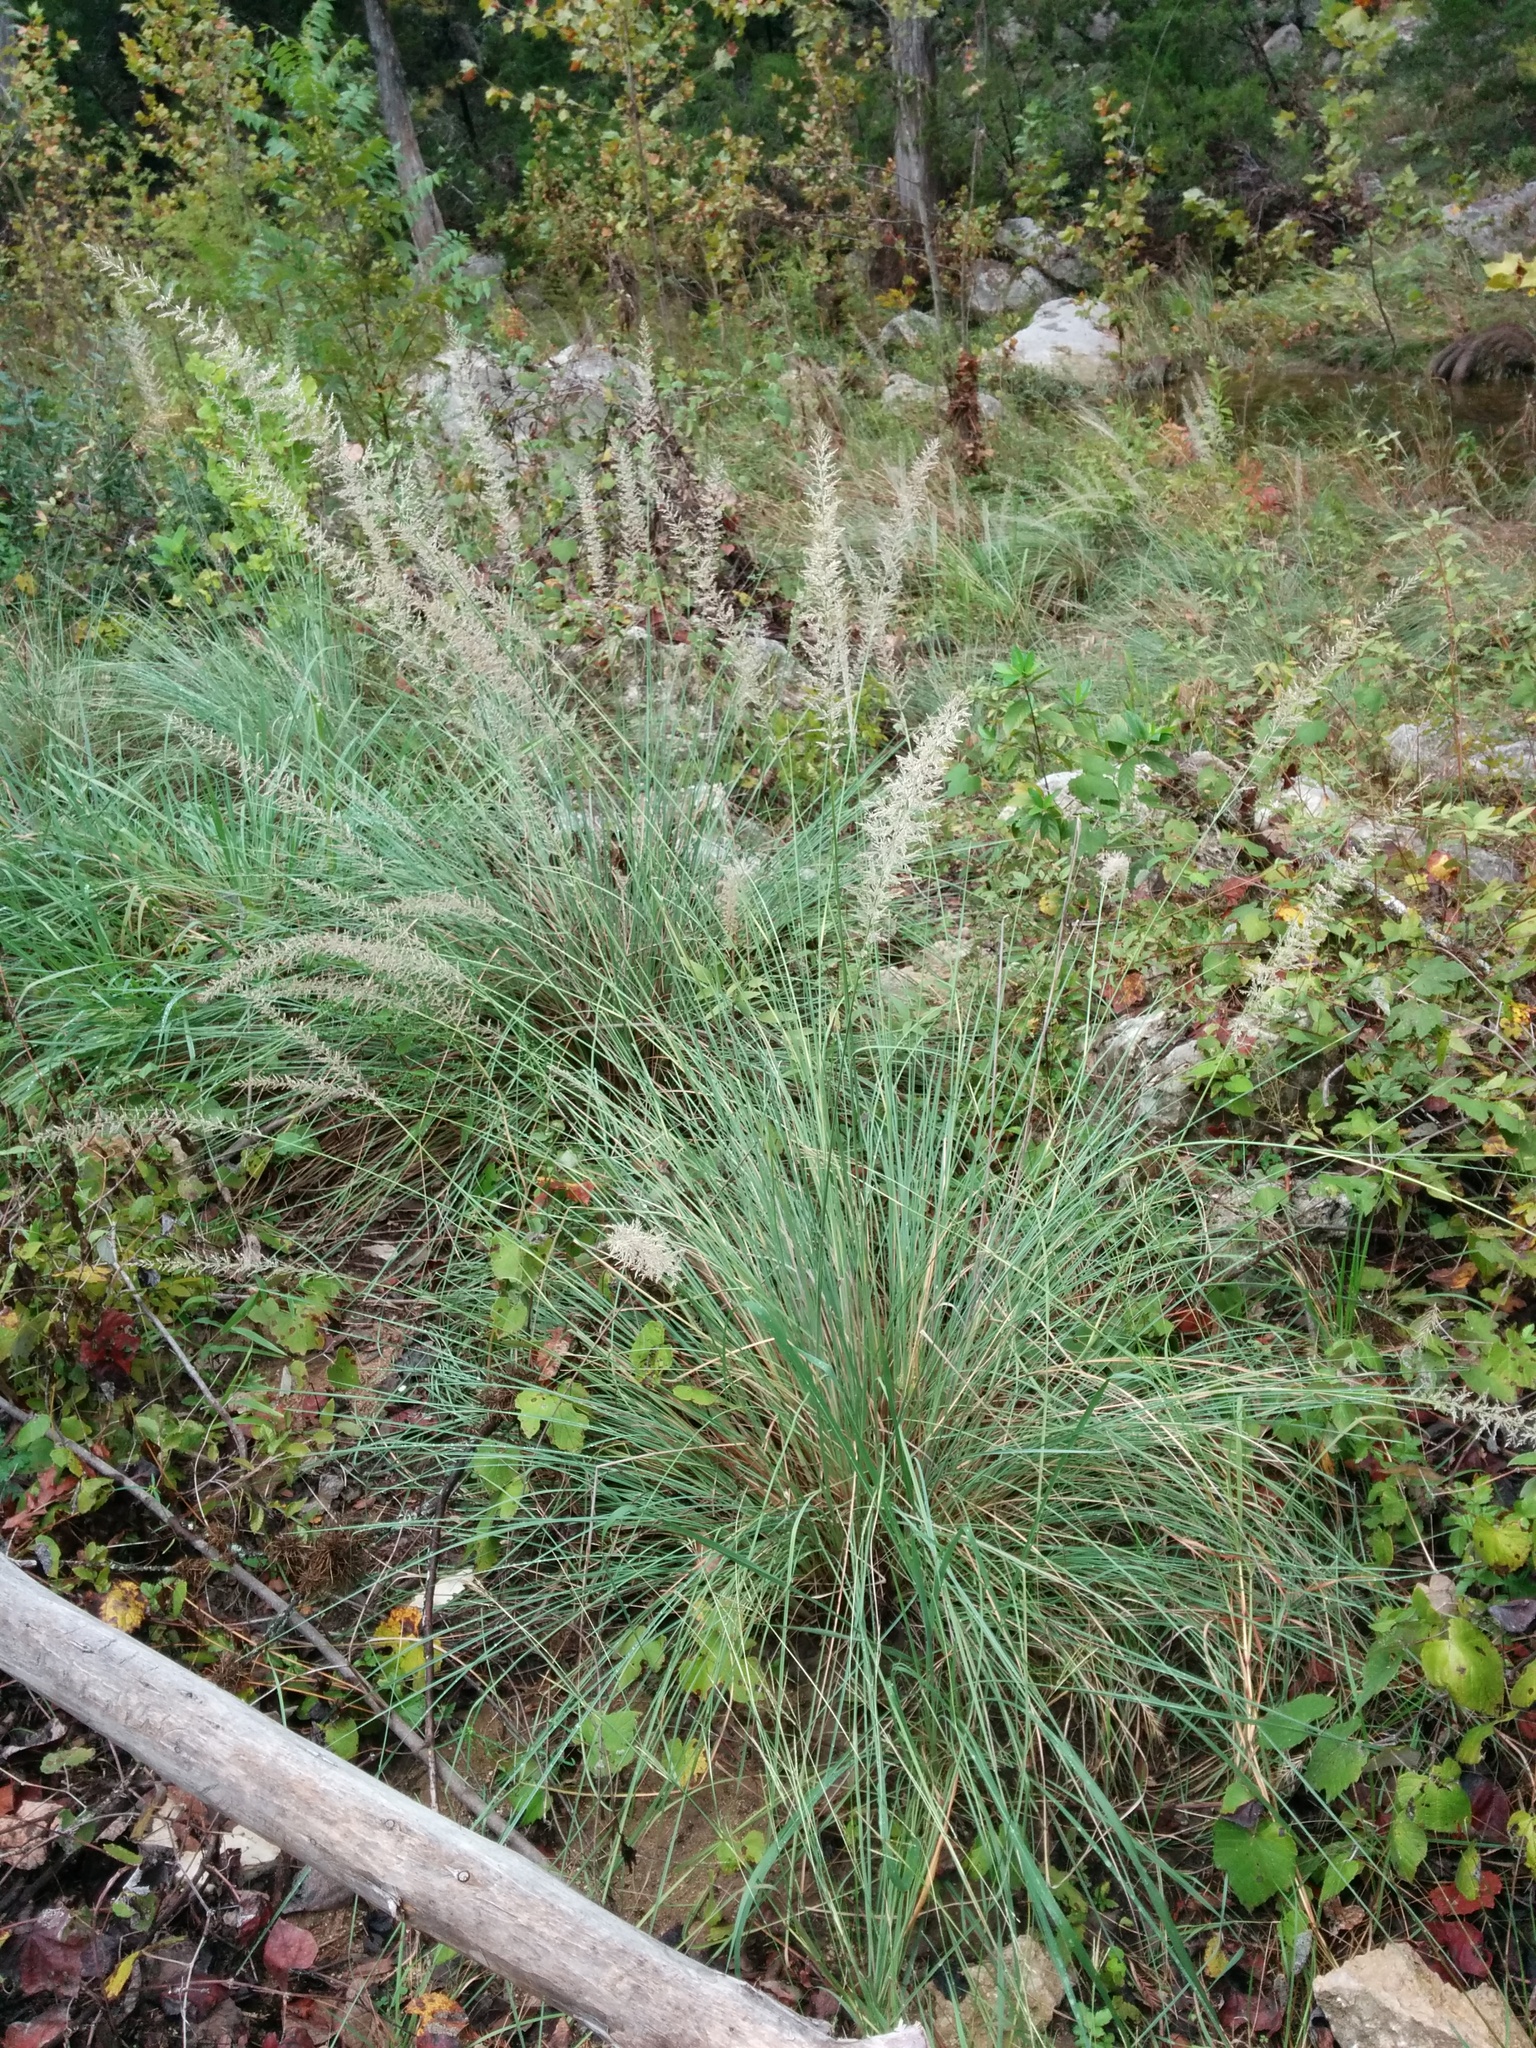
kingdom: Plantae
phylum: Tracheophyta
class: Liliopsida
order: Poales
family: Poaceae
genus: Muhlenbergia
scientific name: Muhlenbergia lindheimeri
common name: Lindheimer's muhly
